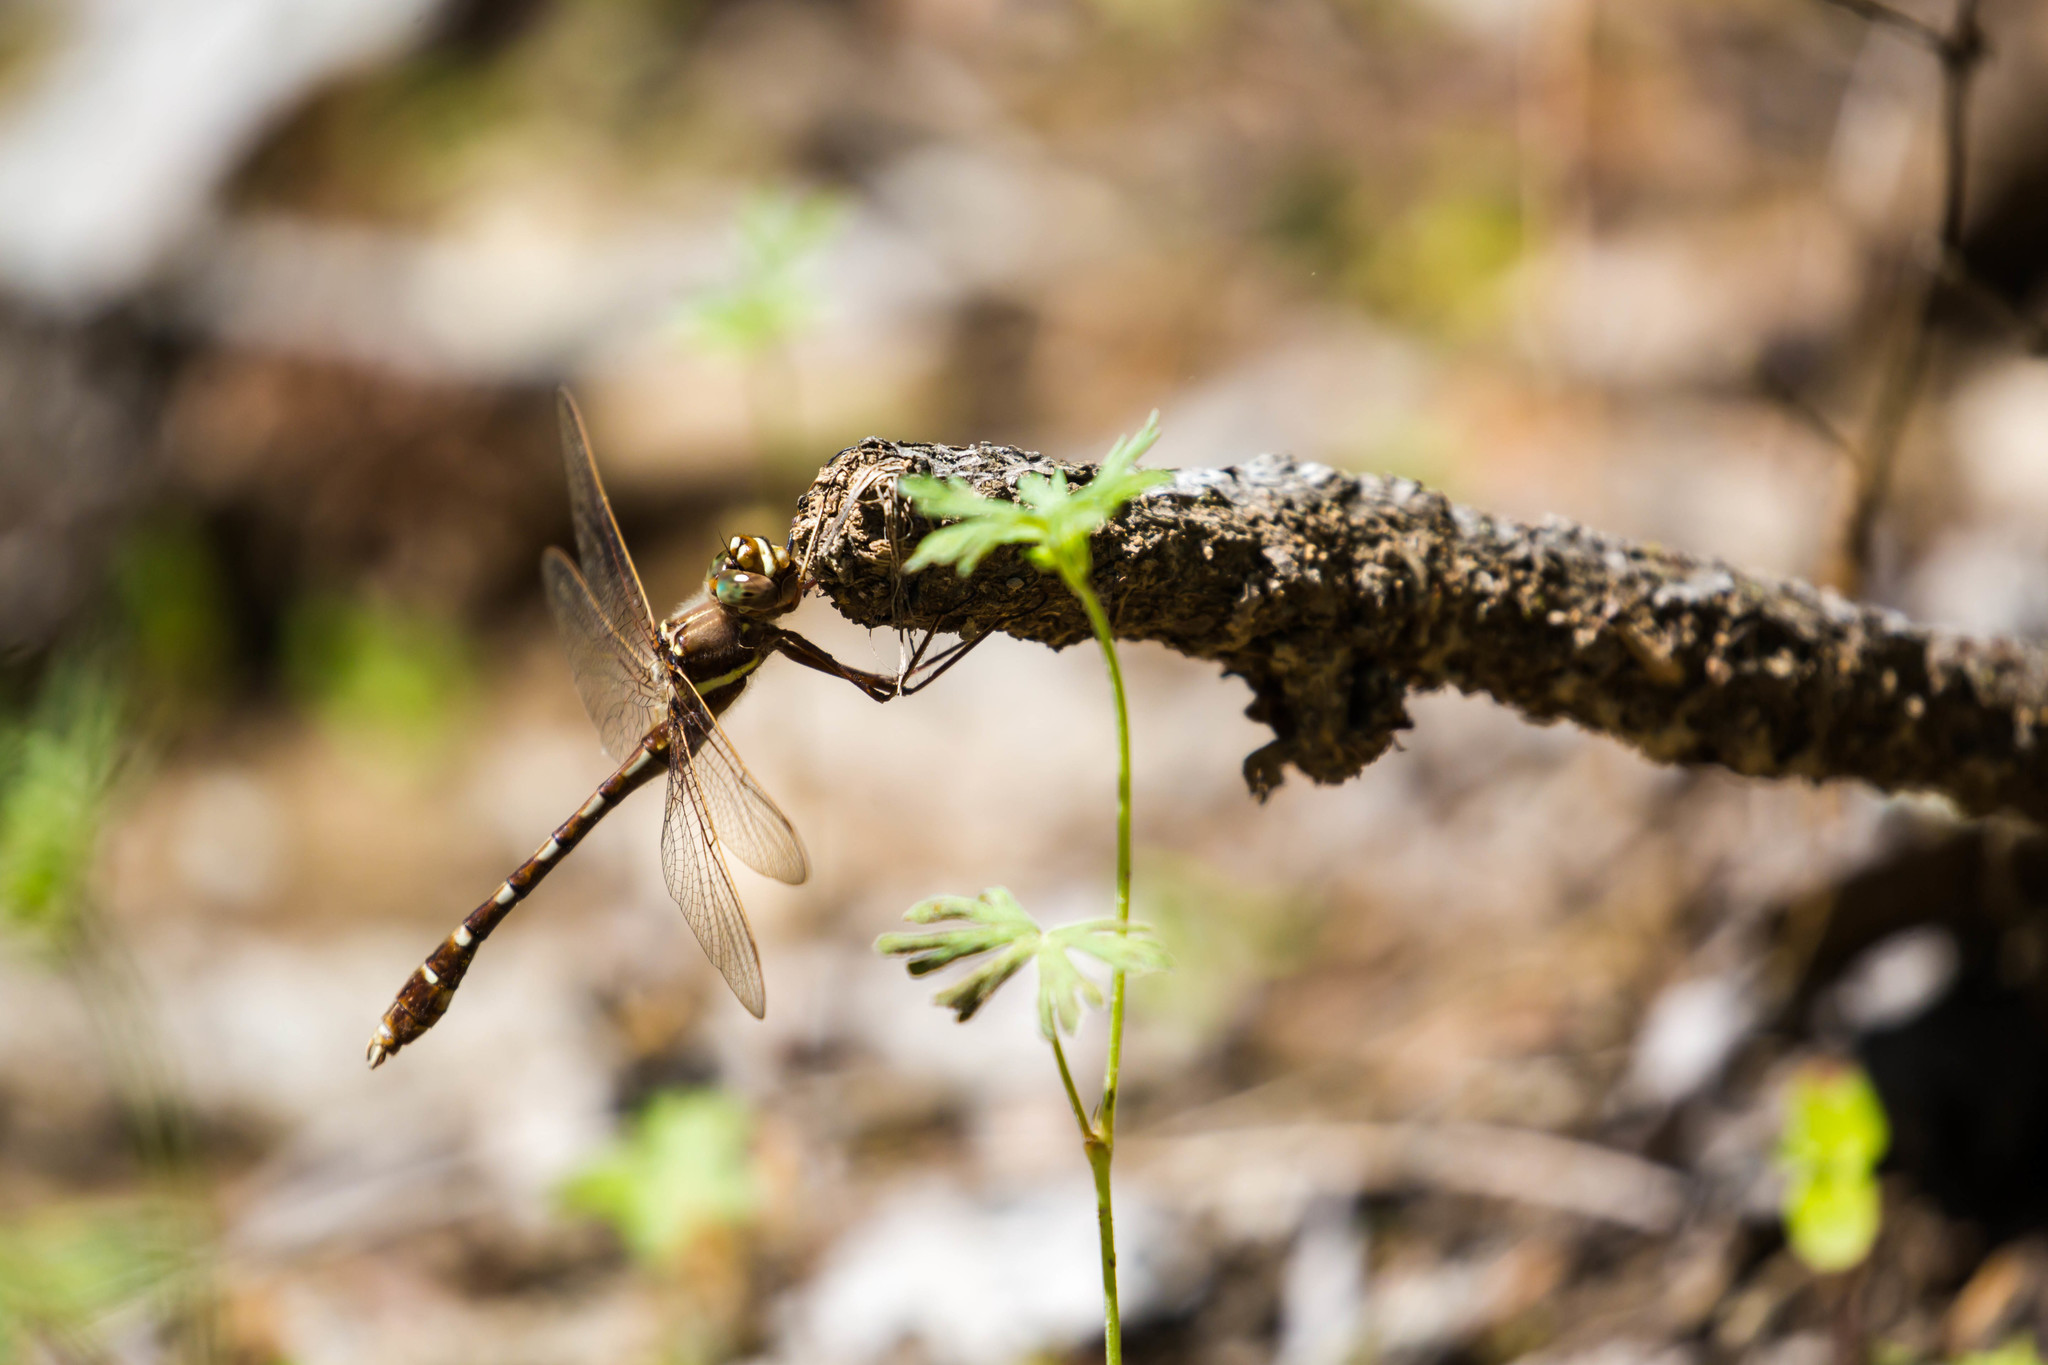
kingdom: Animalia
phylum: Arthropoda
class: Insecta
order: Odonata
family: Macromiidae
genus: Didymops
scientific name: Didymops transversa
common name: Stream cruiser
